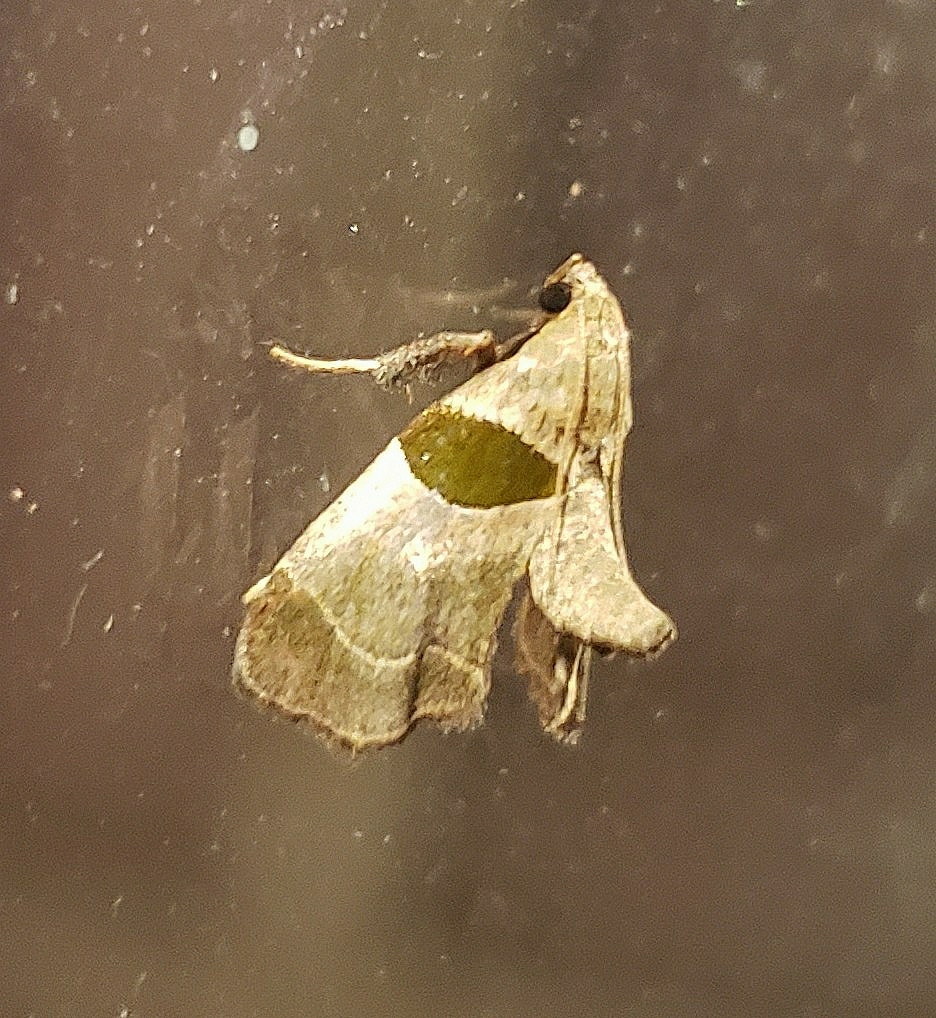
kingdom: Animalia
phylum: Arthropoda
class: Insecta
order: Lepidoptera
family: Pyralidae
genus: Tosale
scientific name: Tosale oviplagalis
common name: Dimorphic tosale moth
